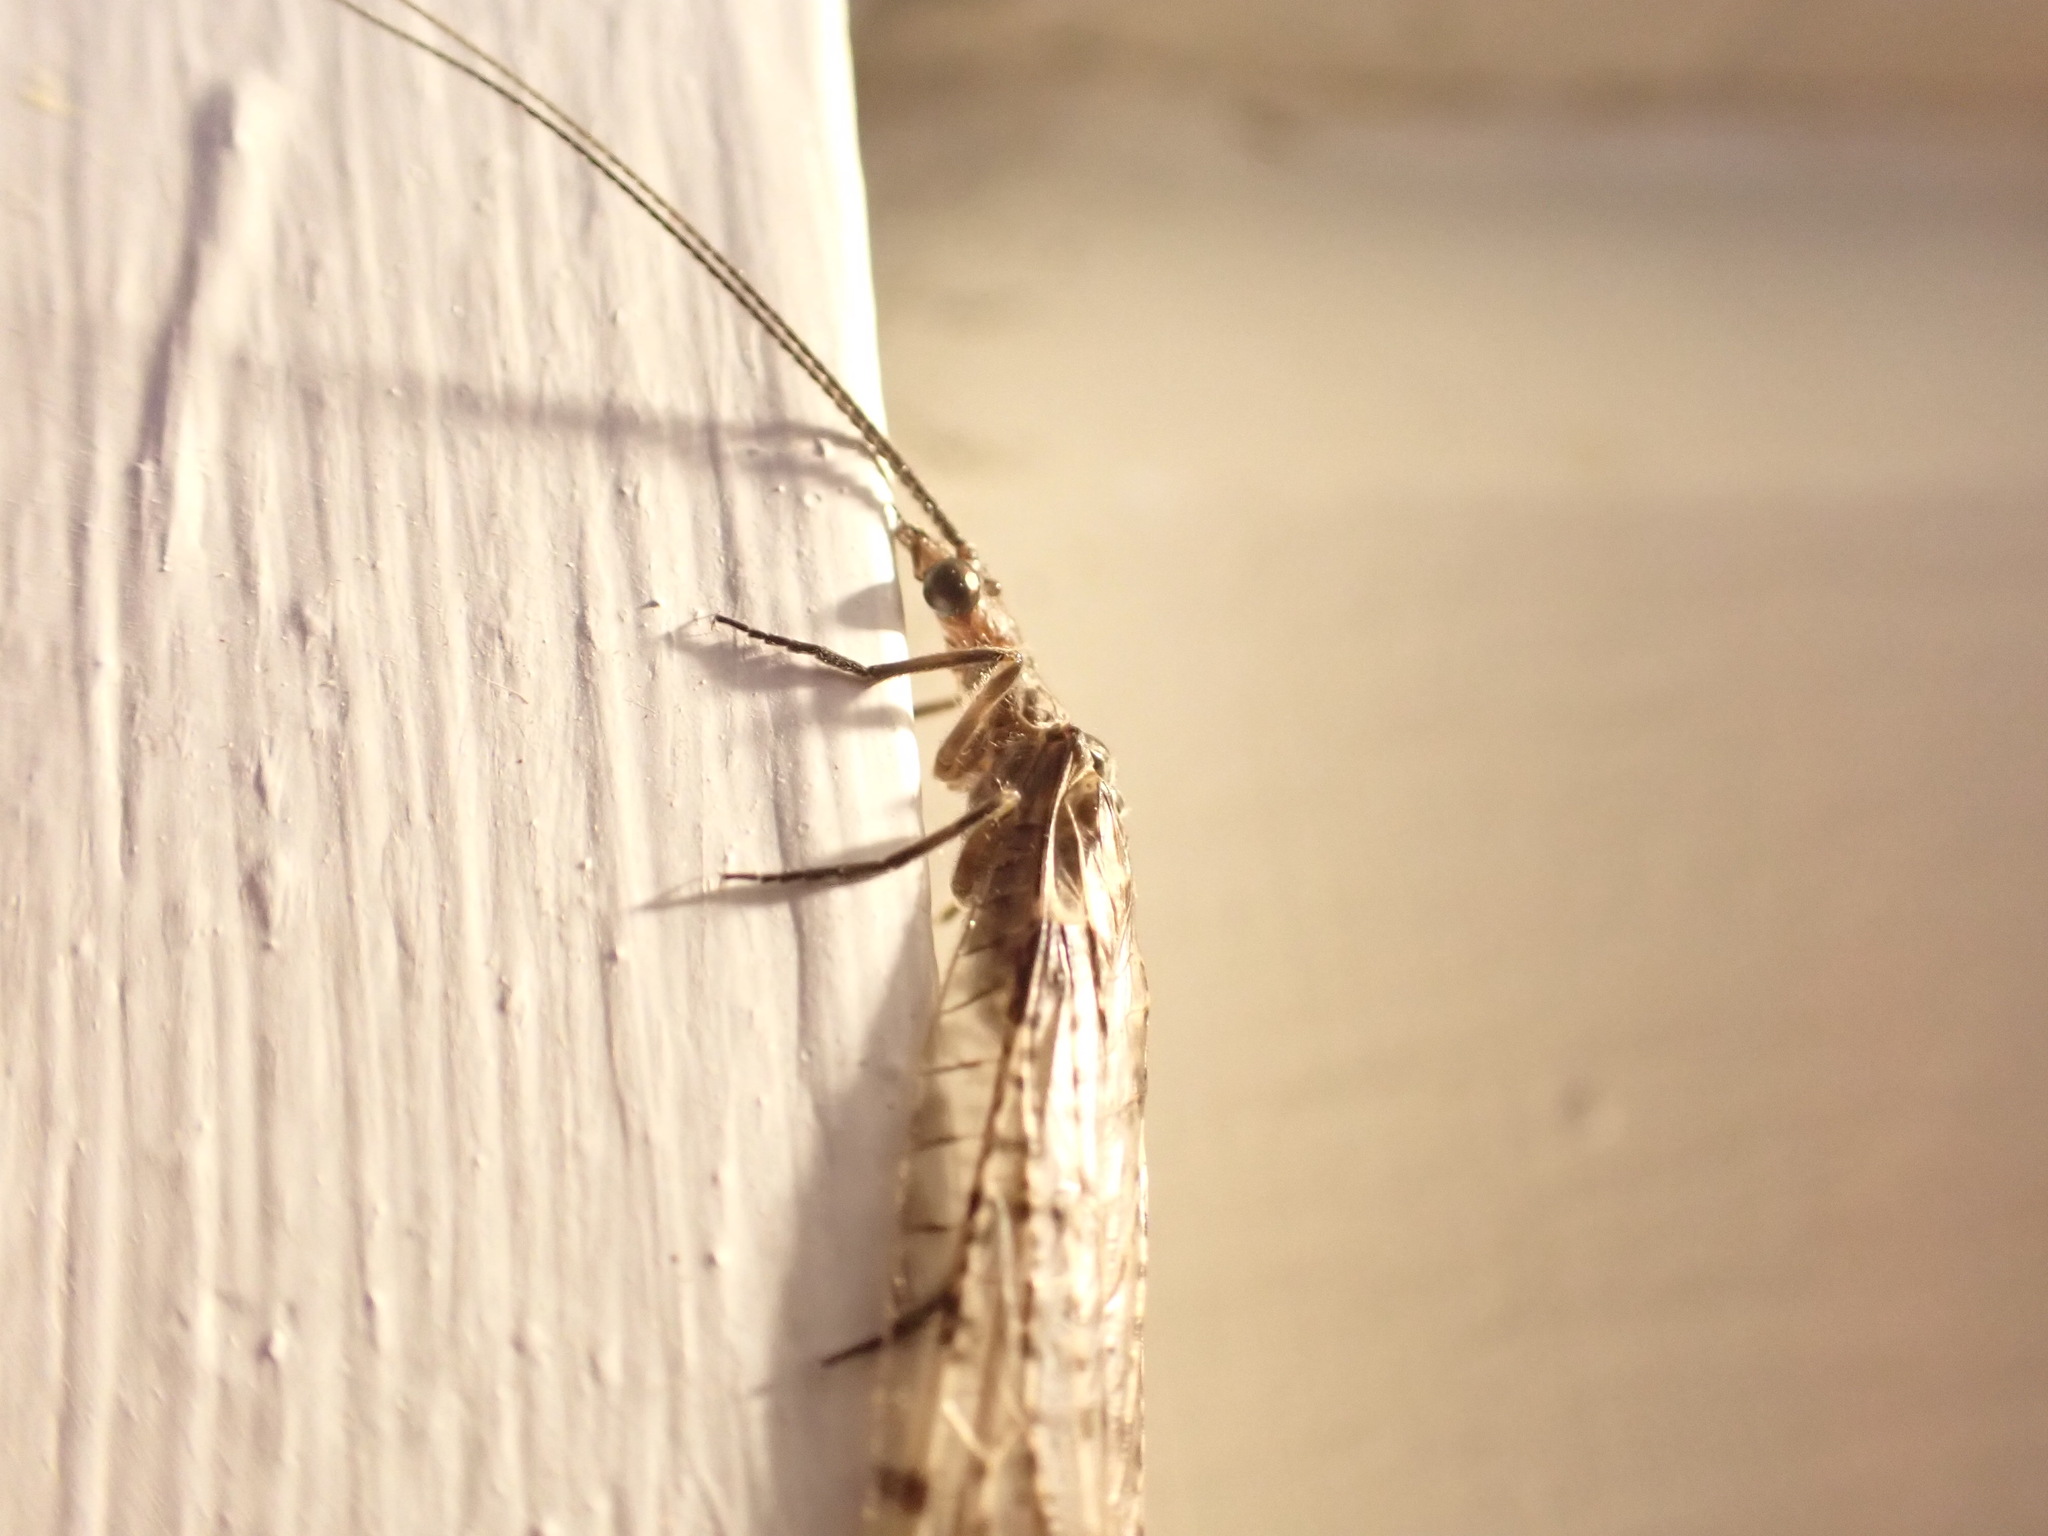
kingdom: Animalia
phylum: Arthropoda
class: Insecta
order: Megaloptera
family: Corydalidae
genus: Archichauliodes
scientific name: Archichauliodes diversus
